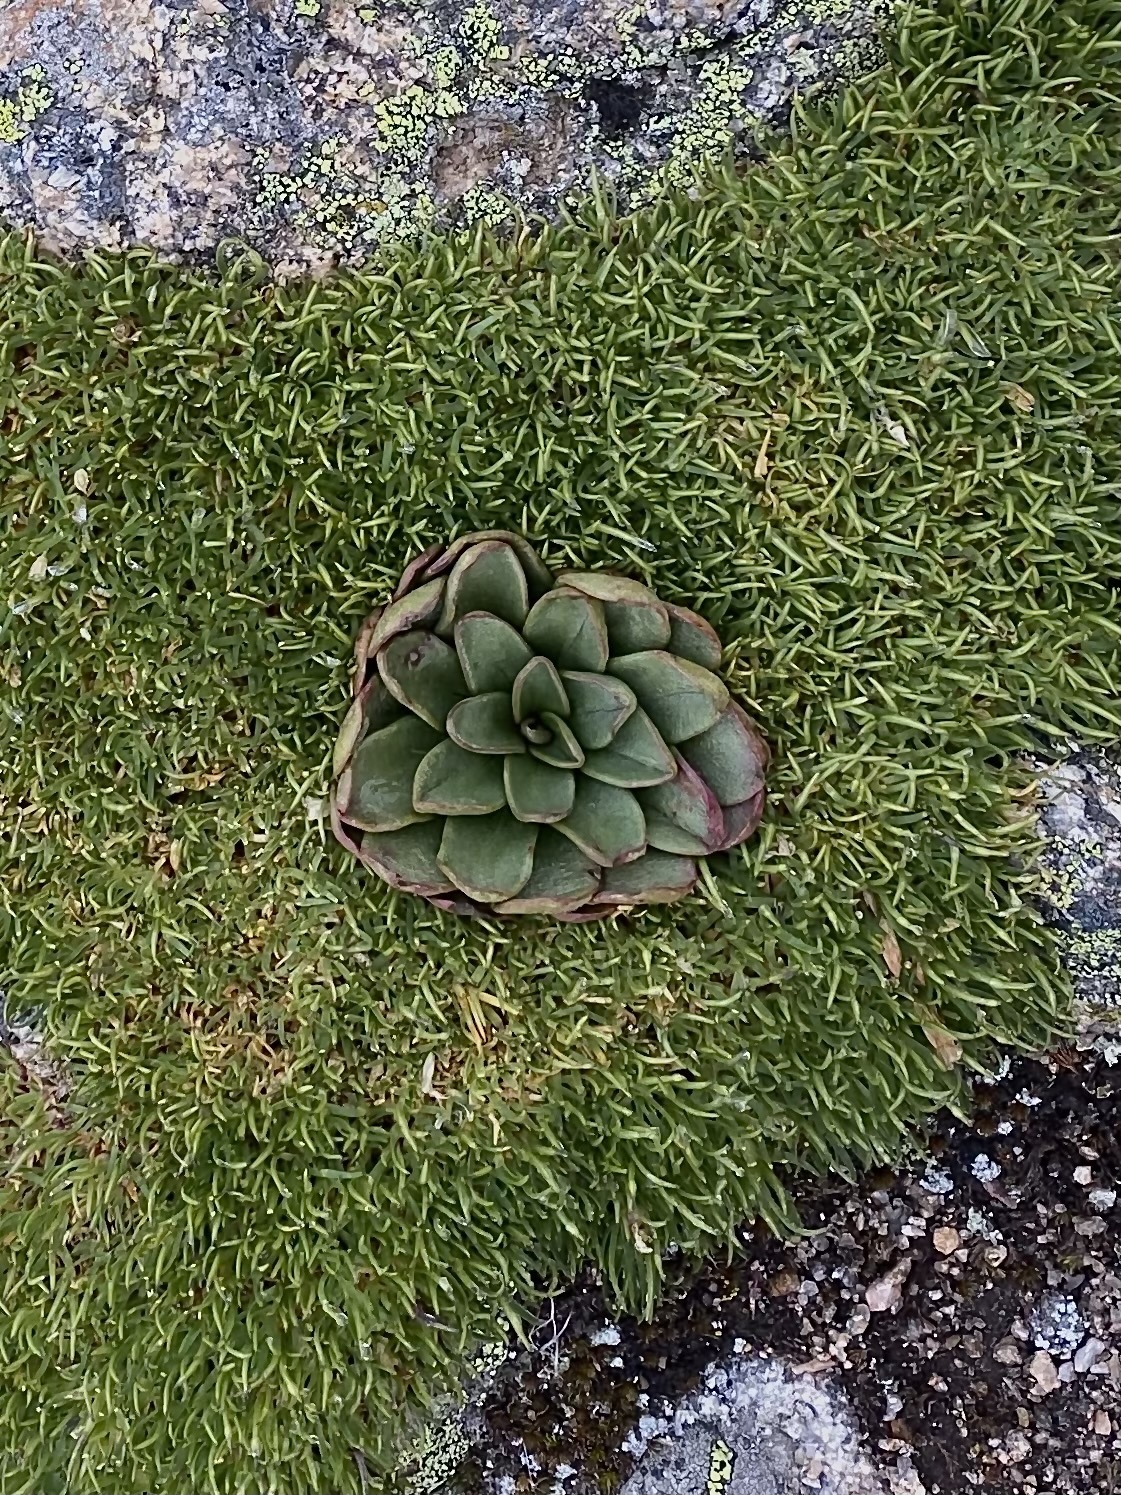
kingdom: Plantae
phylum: Tracheophyta
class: Magnoliopsida
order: Caryophyllales
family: Montiaceae
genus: Claytonia
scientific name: Claytonia megarhiza
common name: Alpine spring beauty
